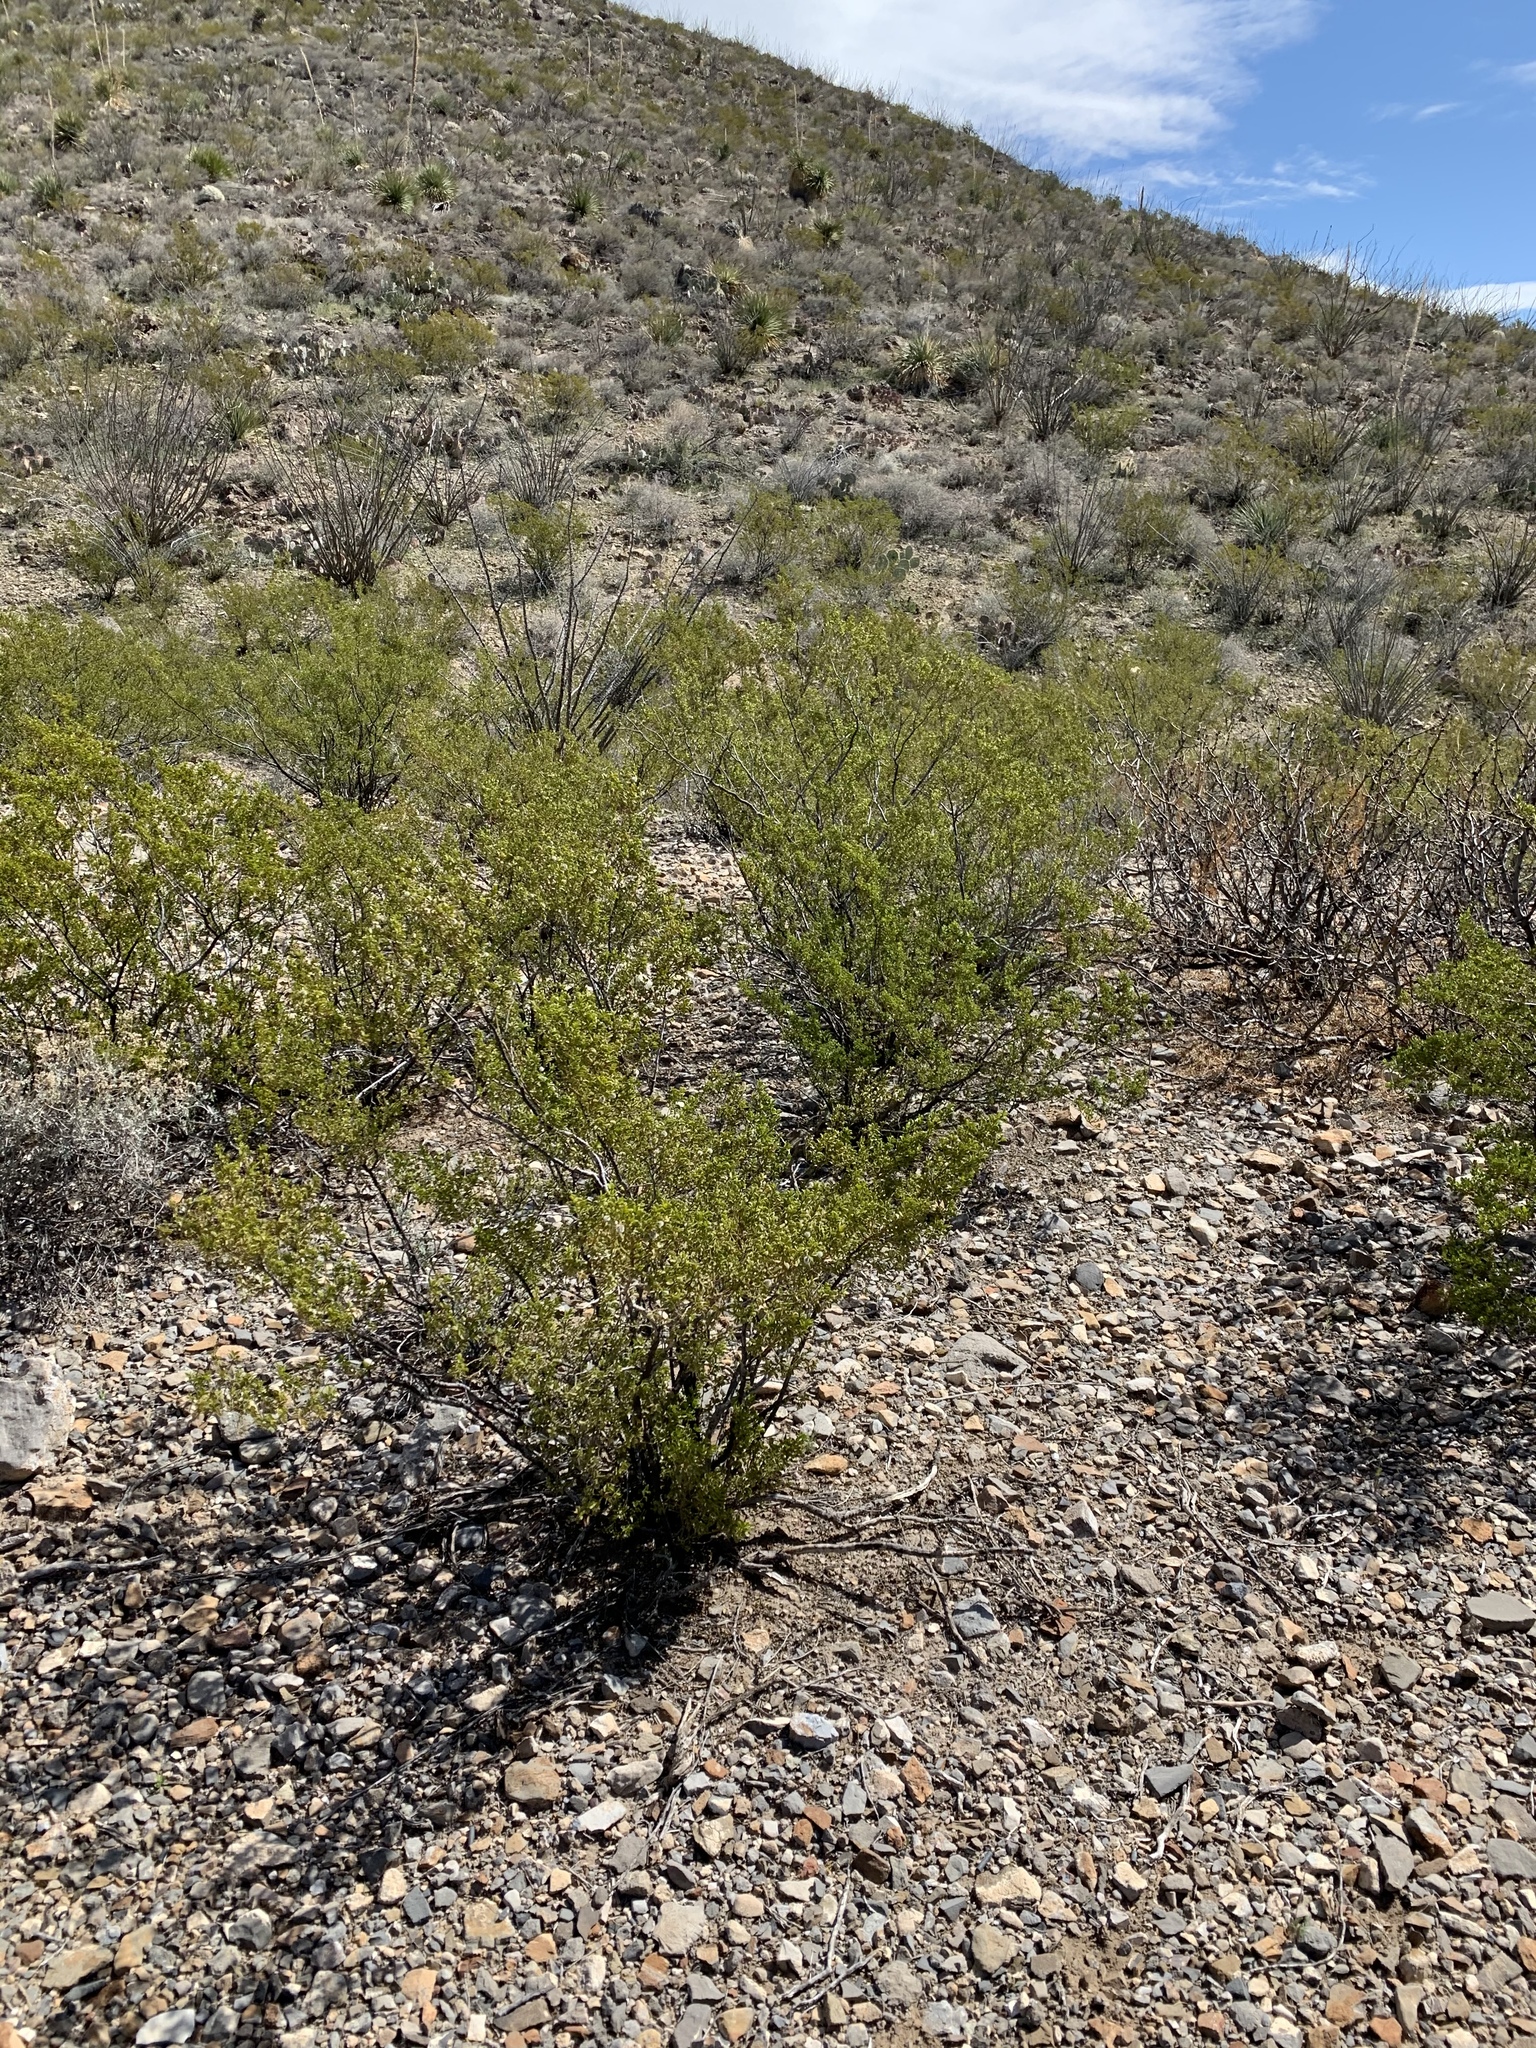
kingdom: Plantae
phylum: Tracheophyta
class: Magnoliopsida
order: Zygophyllales
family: Zygophyllaceae
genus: Larrea
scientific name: Larrea tridentata
